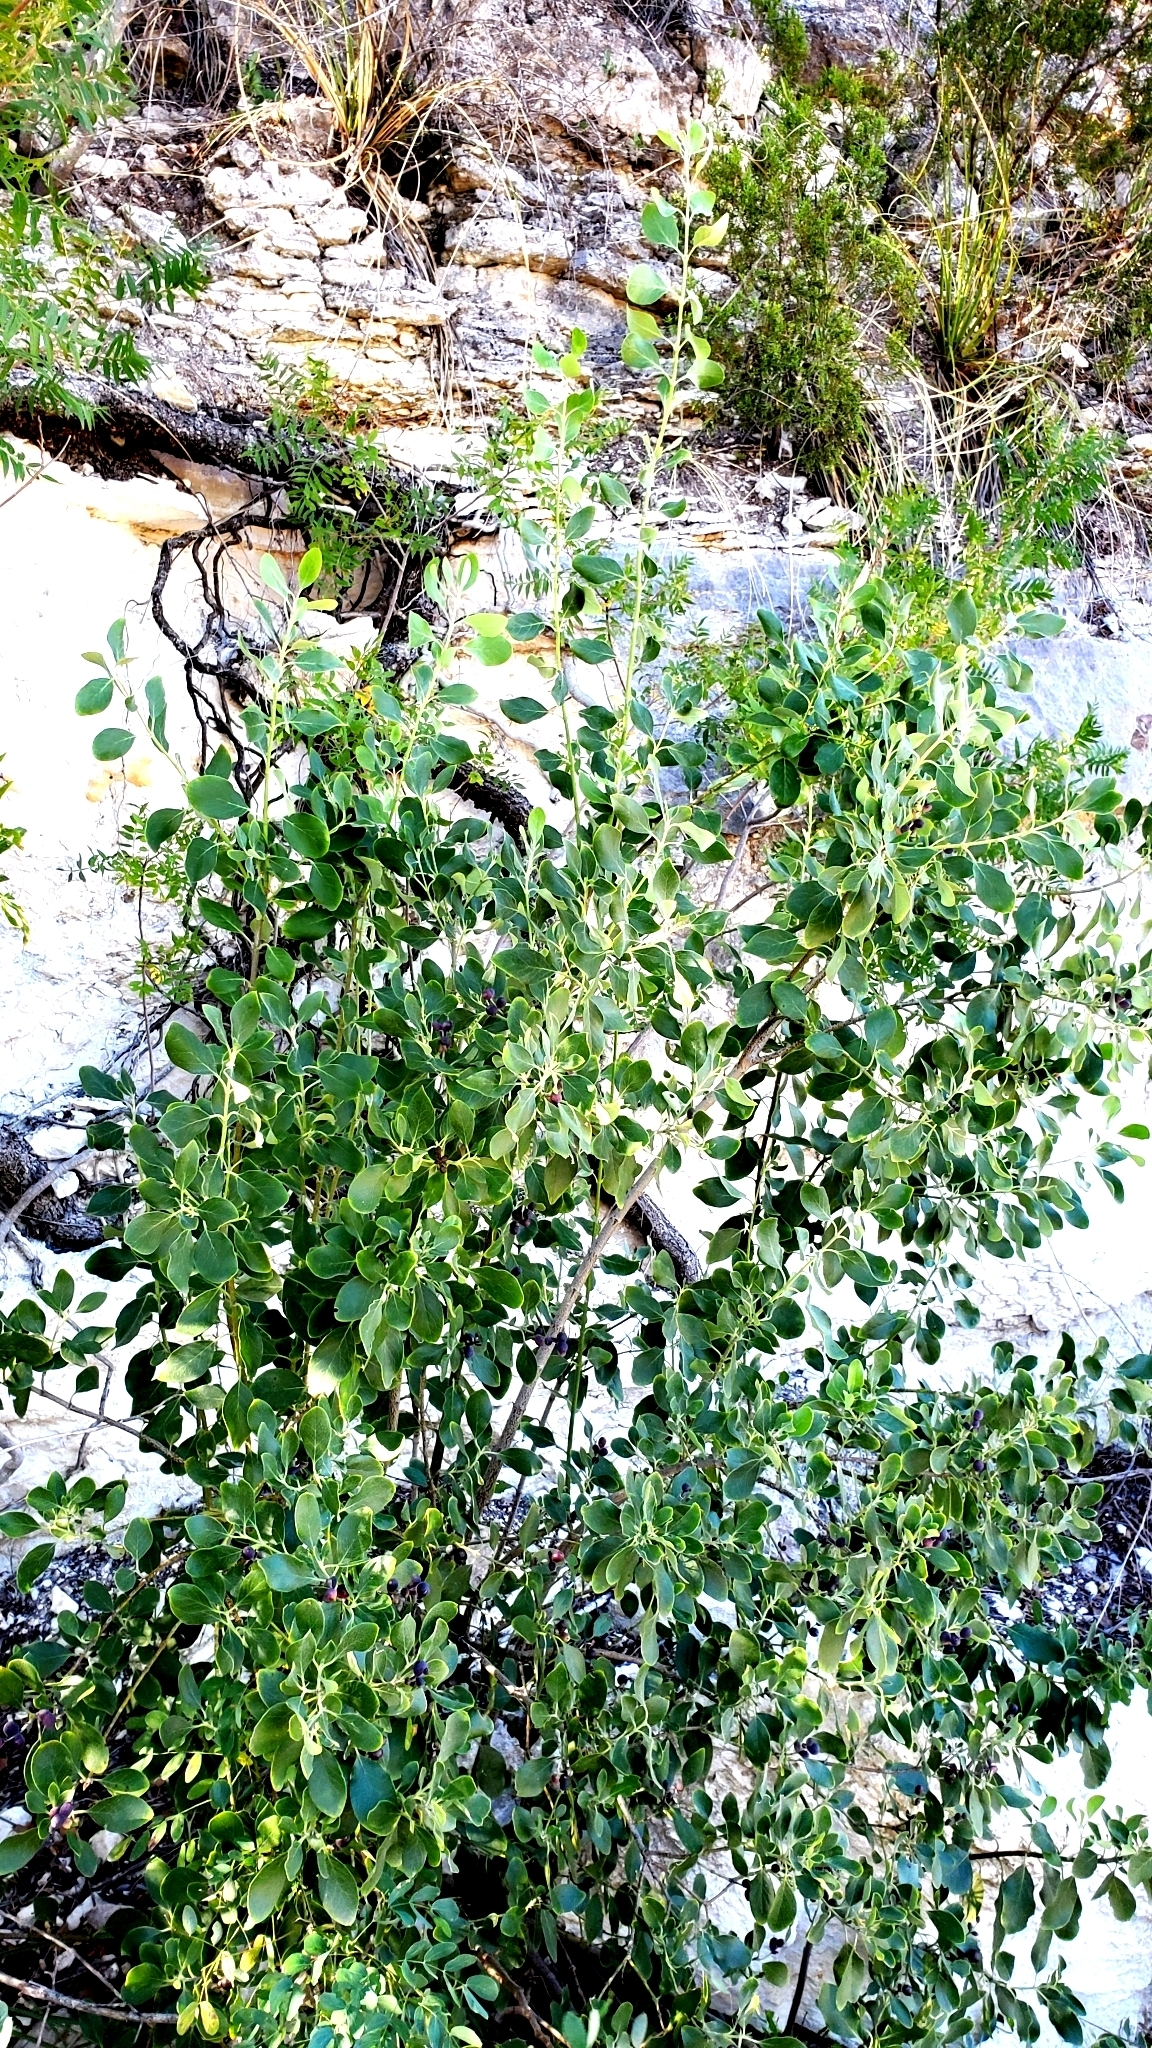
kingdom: Plantae
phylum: Tracheophyta
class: Magnoliopsida
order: Garryales
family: Garryaceae
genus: Garrya
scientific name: Garrya lindheimeri
